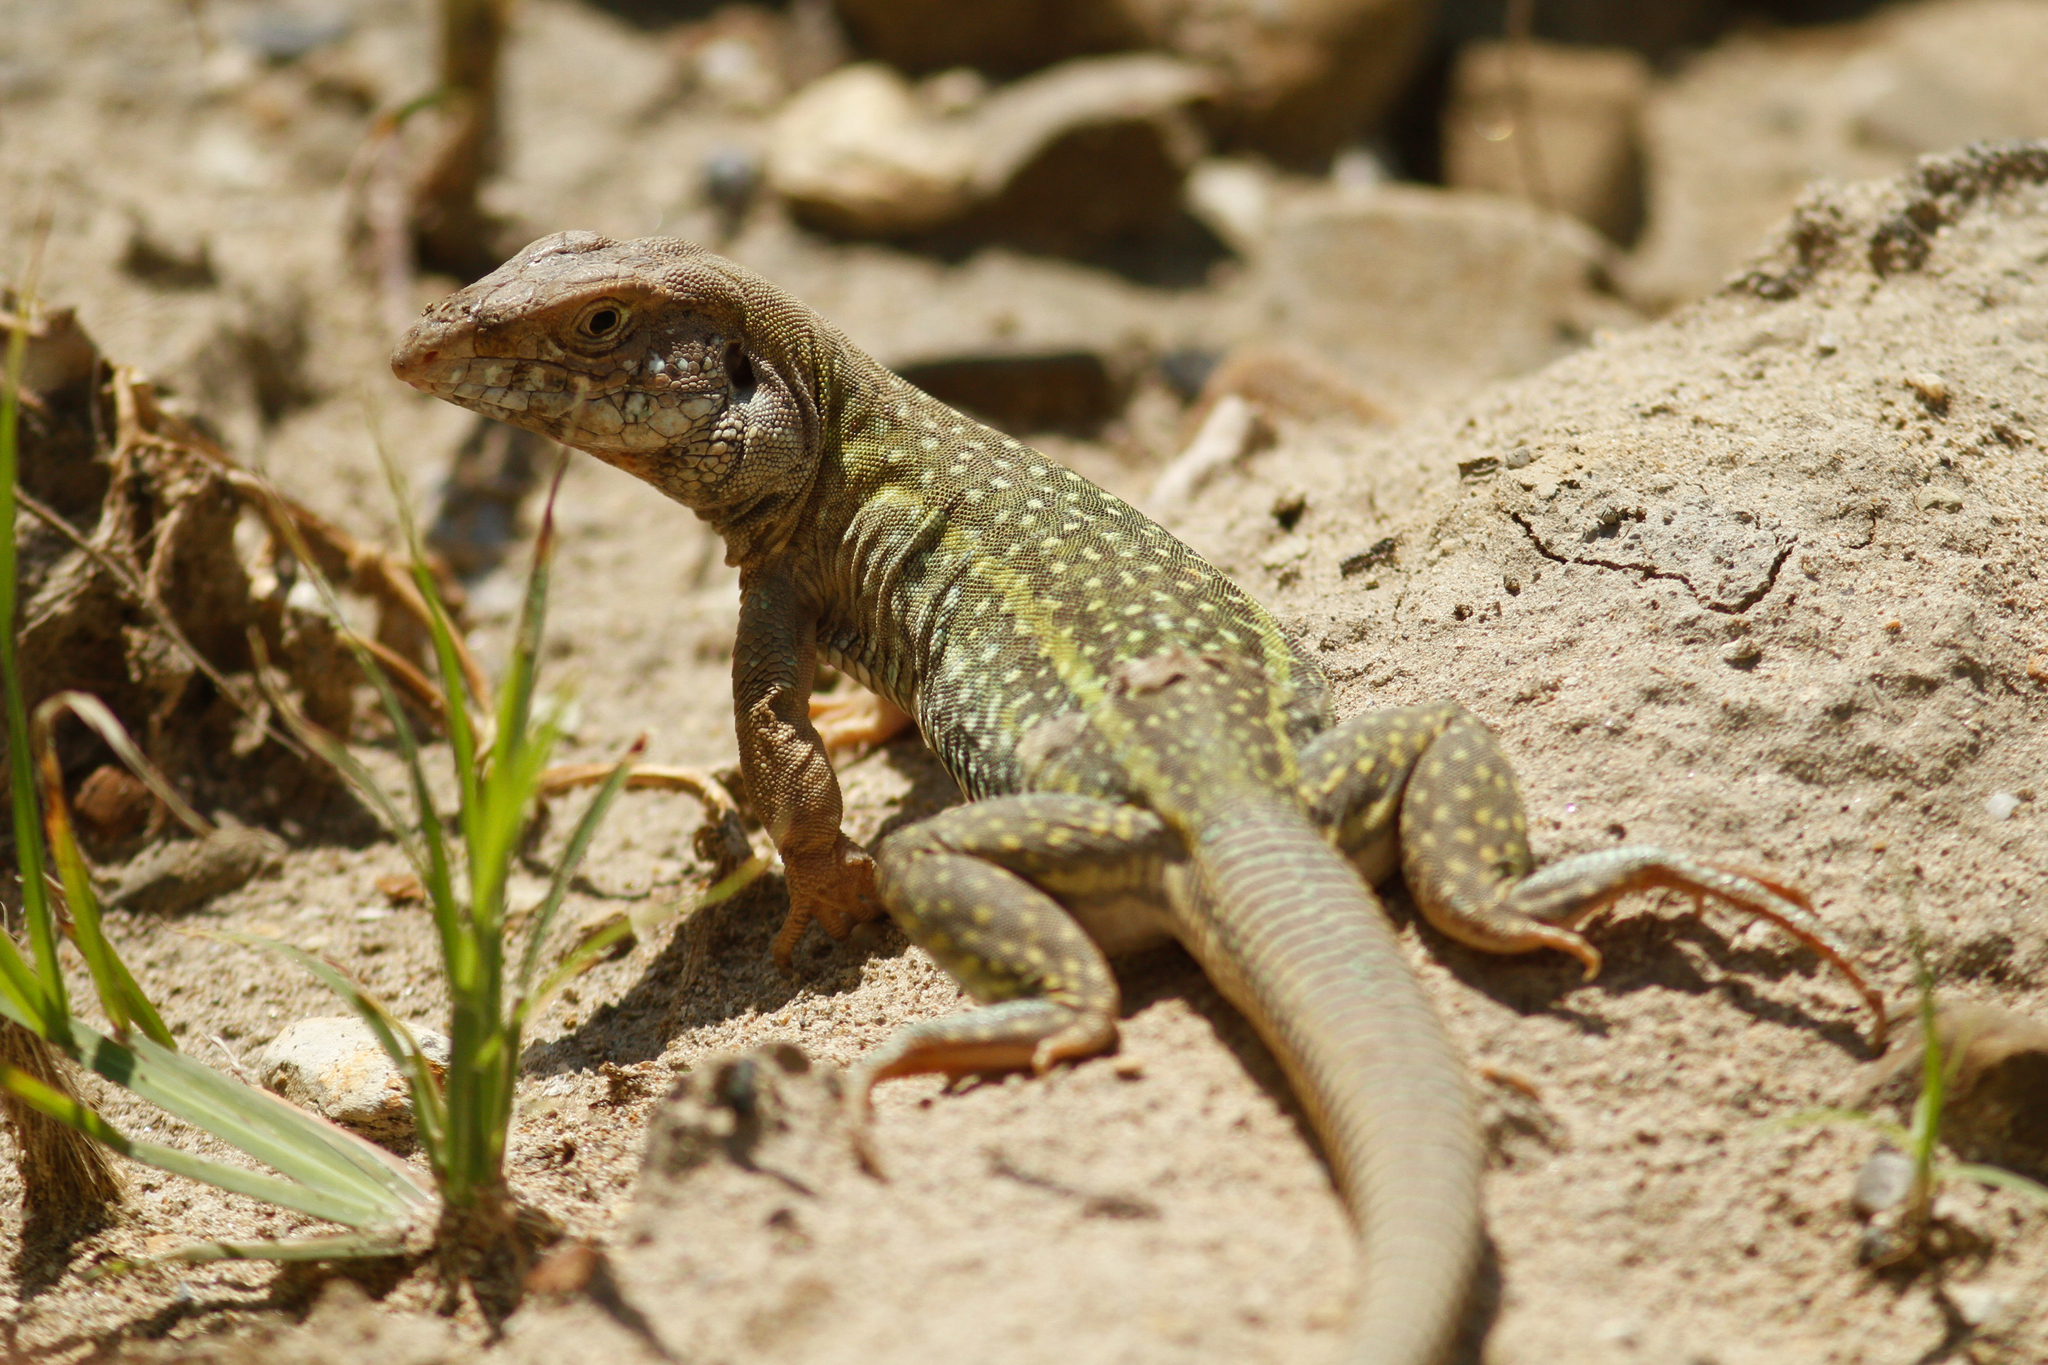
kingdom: Animalia
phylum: Chordata
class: Squamata
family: Teiidae
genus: Dicrodon
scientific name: Dicrodon guttulatum
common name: Peru desert tegu
